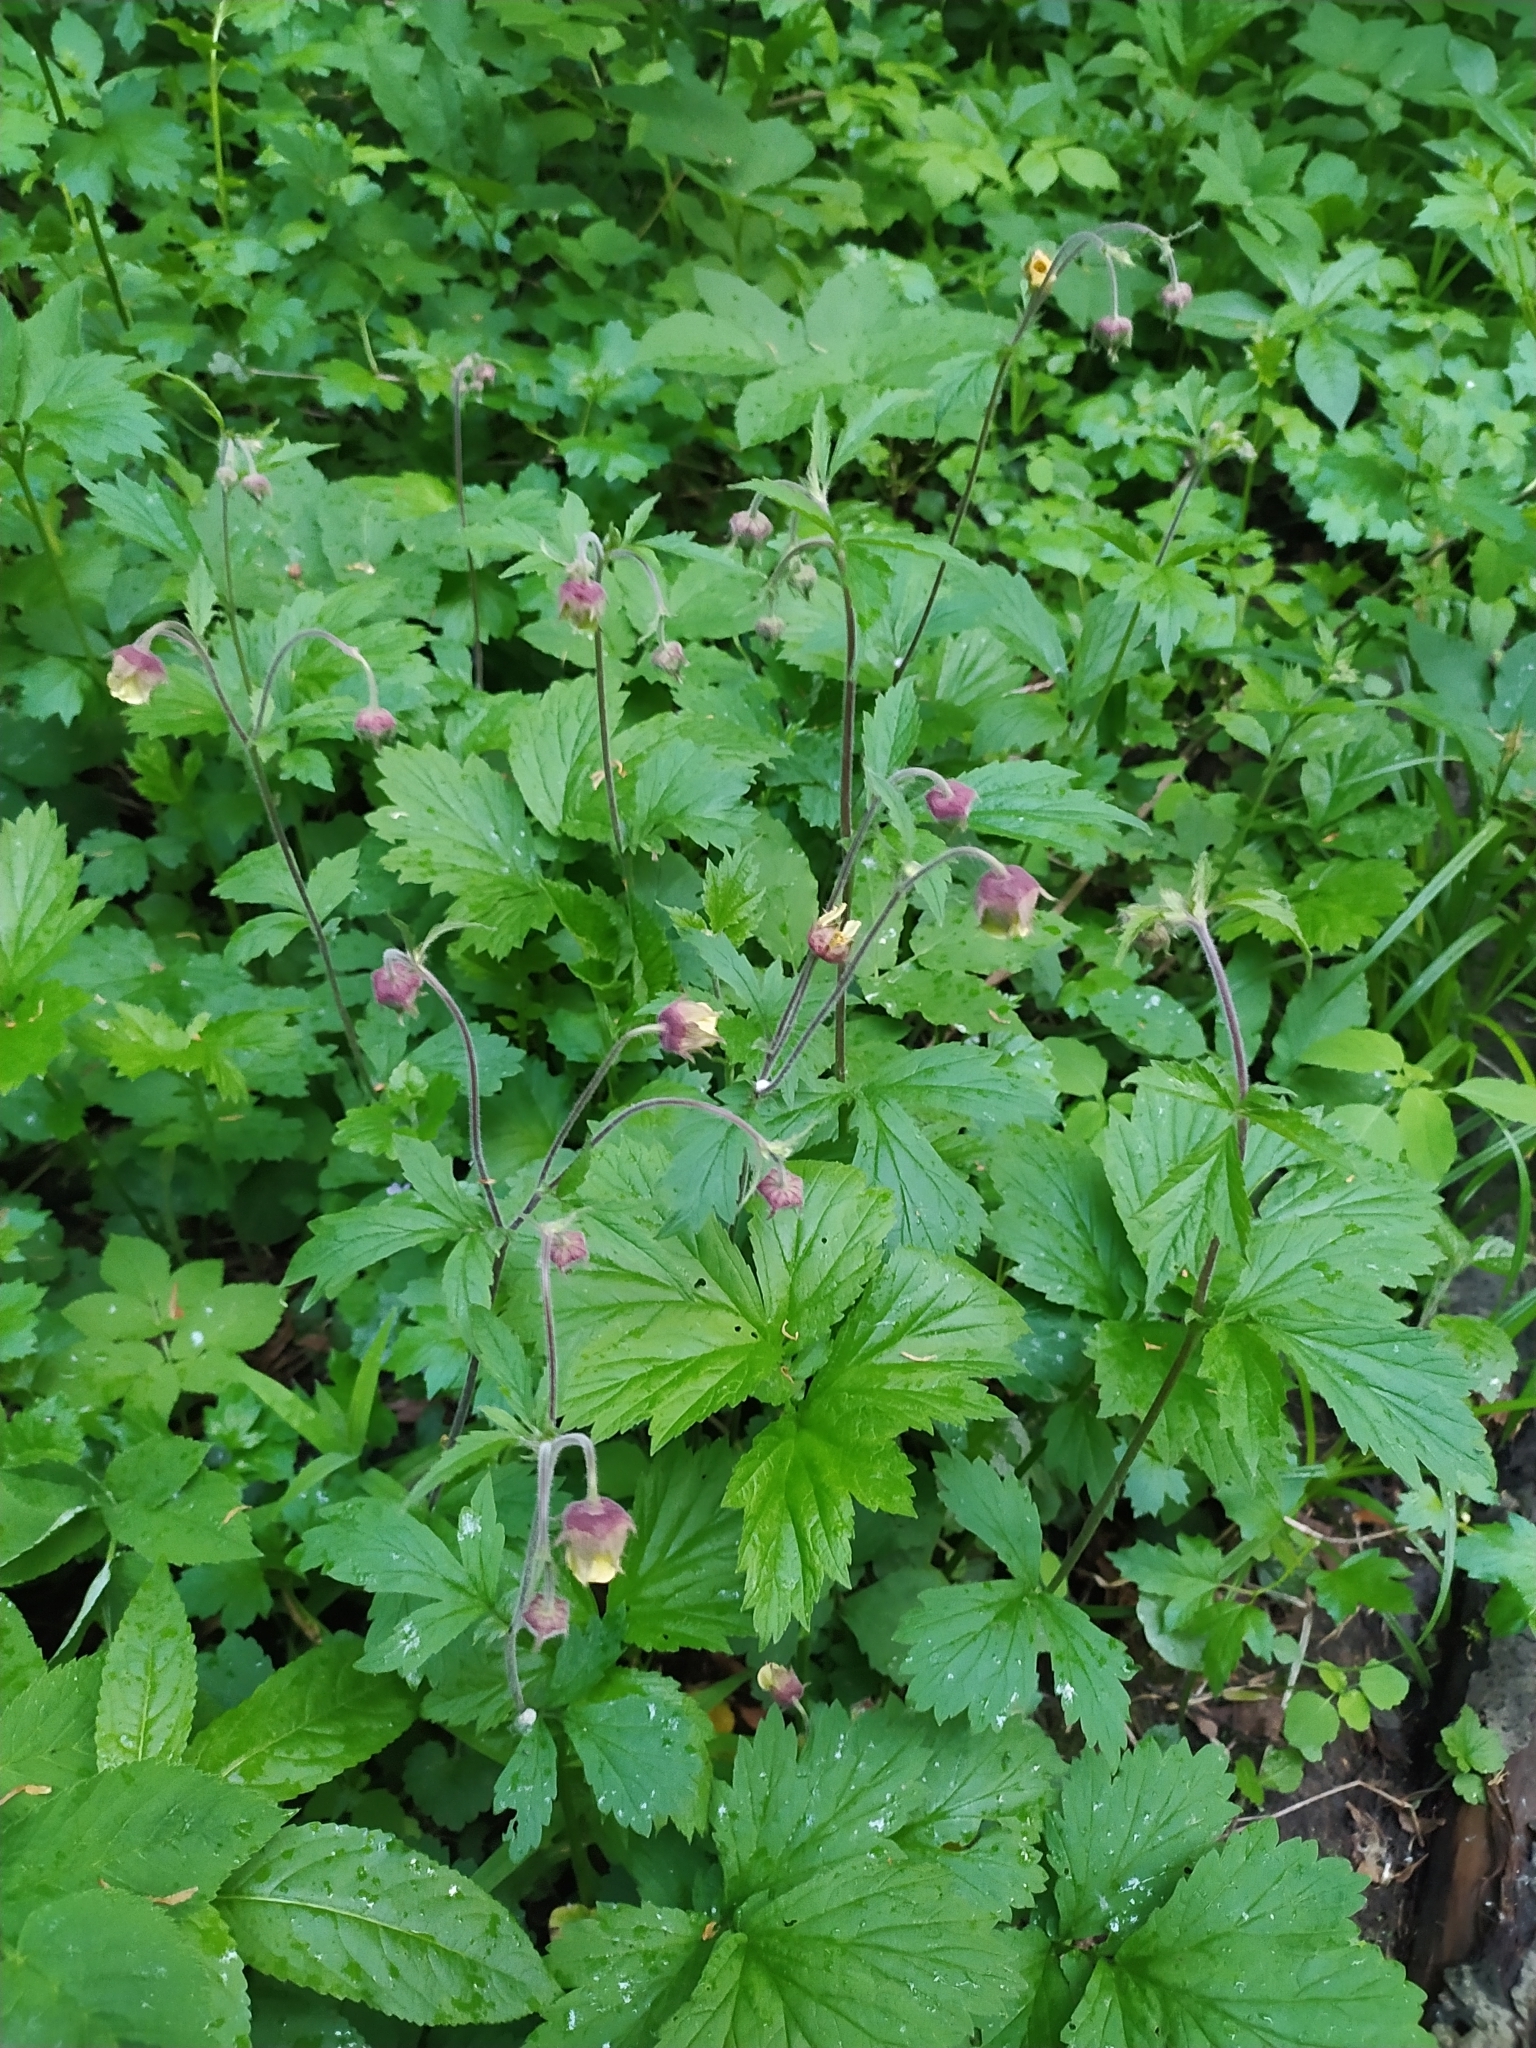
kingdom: Plantae
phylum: Tracheophyta
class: Magnoliopsida
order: Rosales
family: Rosaceae
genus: Geum
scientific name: Geum rivale
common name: Water avens
